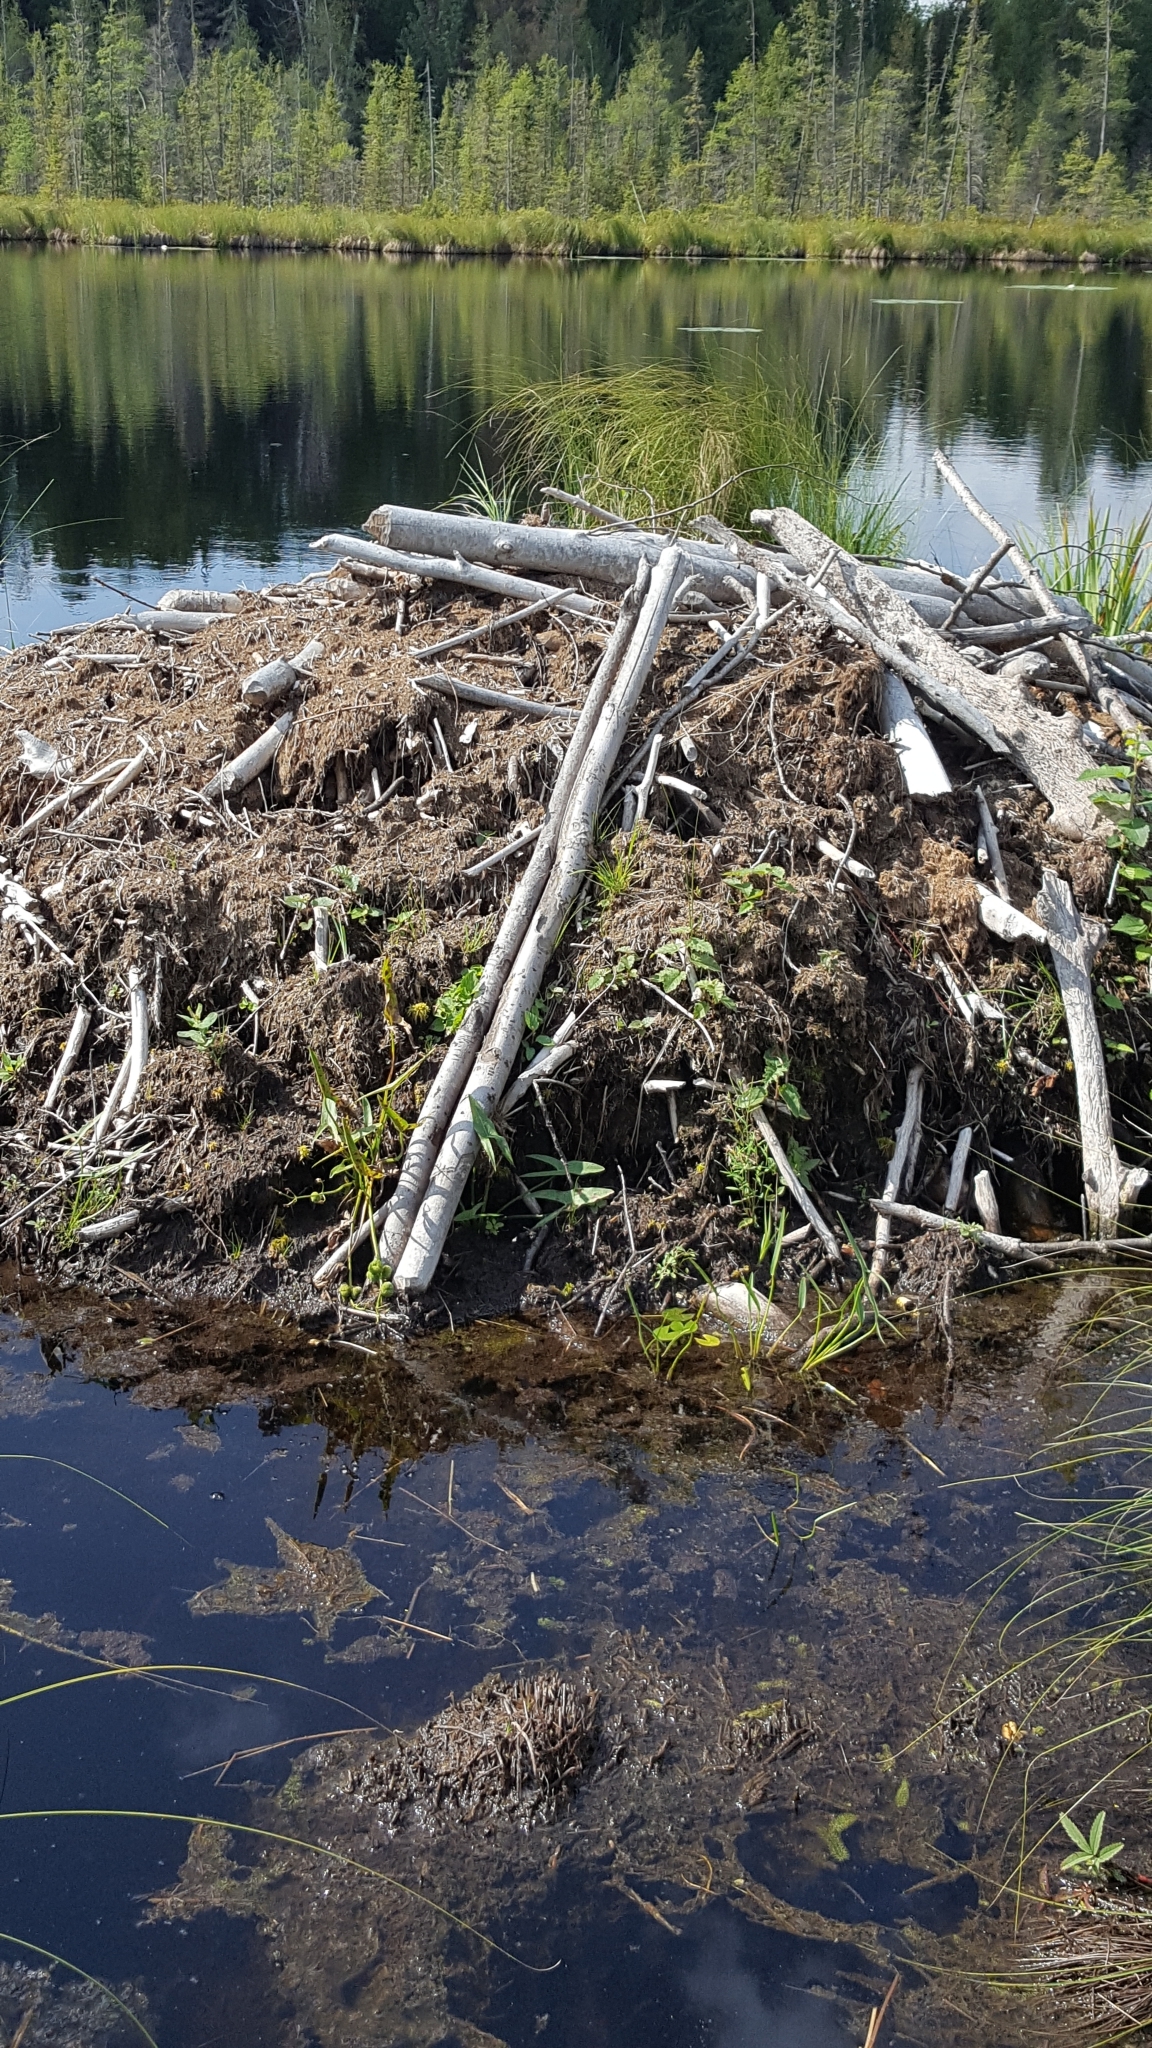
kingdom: Animalia
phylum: Chordata
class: Mammalia
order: Rodentia
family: Castoridae
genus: Castor
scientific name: Castor canadensis
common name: American beaver
